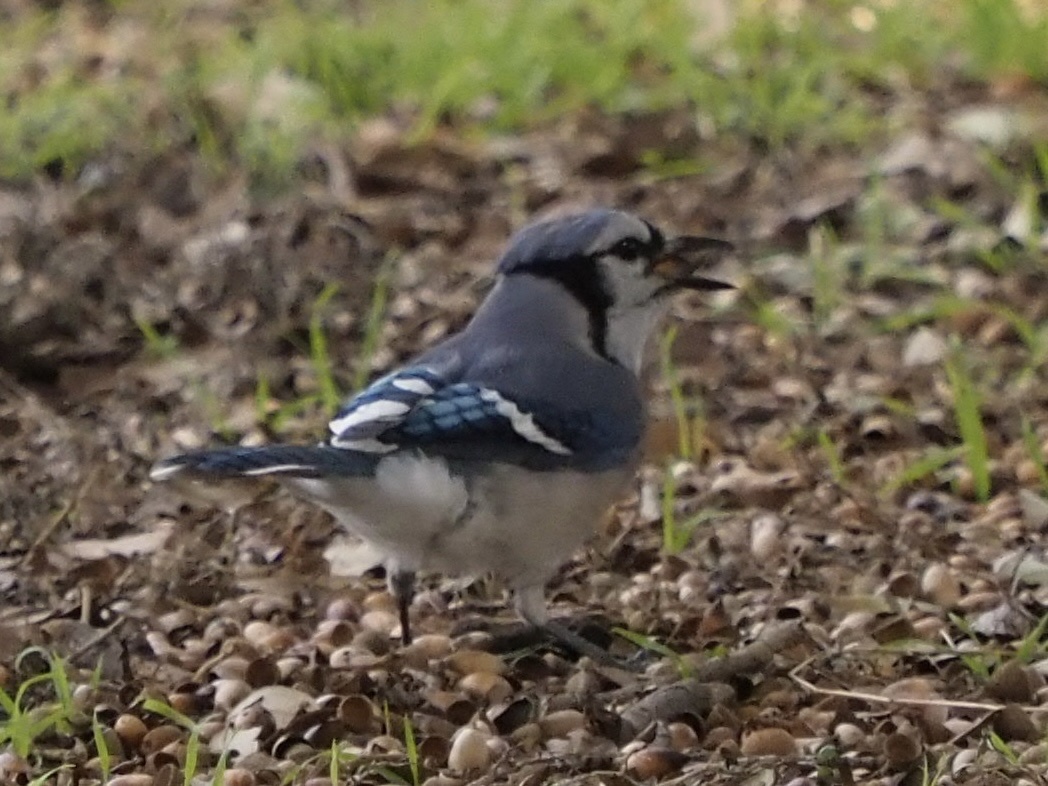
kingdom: Animalia
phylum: Chordata
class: Aves
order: Passeriformes
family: Corvidae
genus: Cyanocitta
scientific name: Cyanocitta cristata
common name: Blue jay
